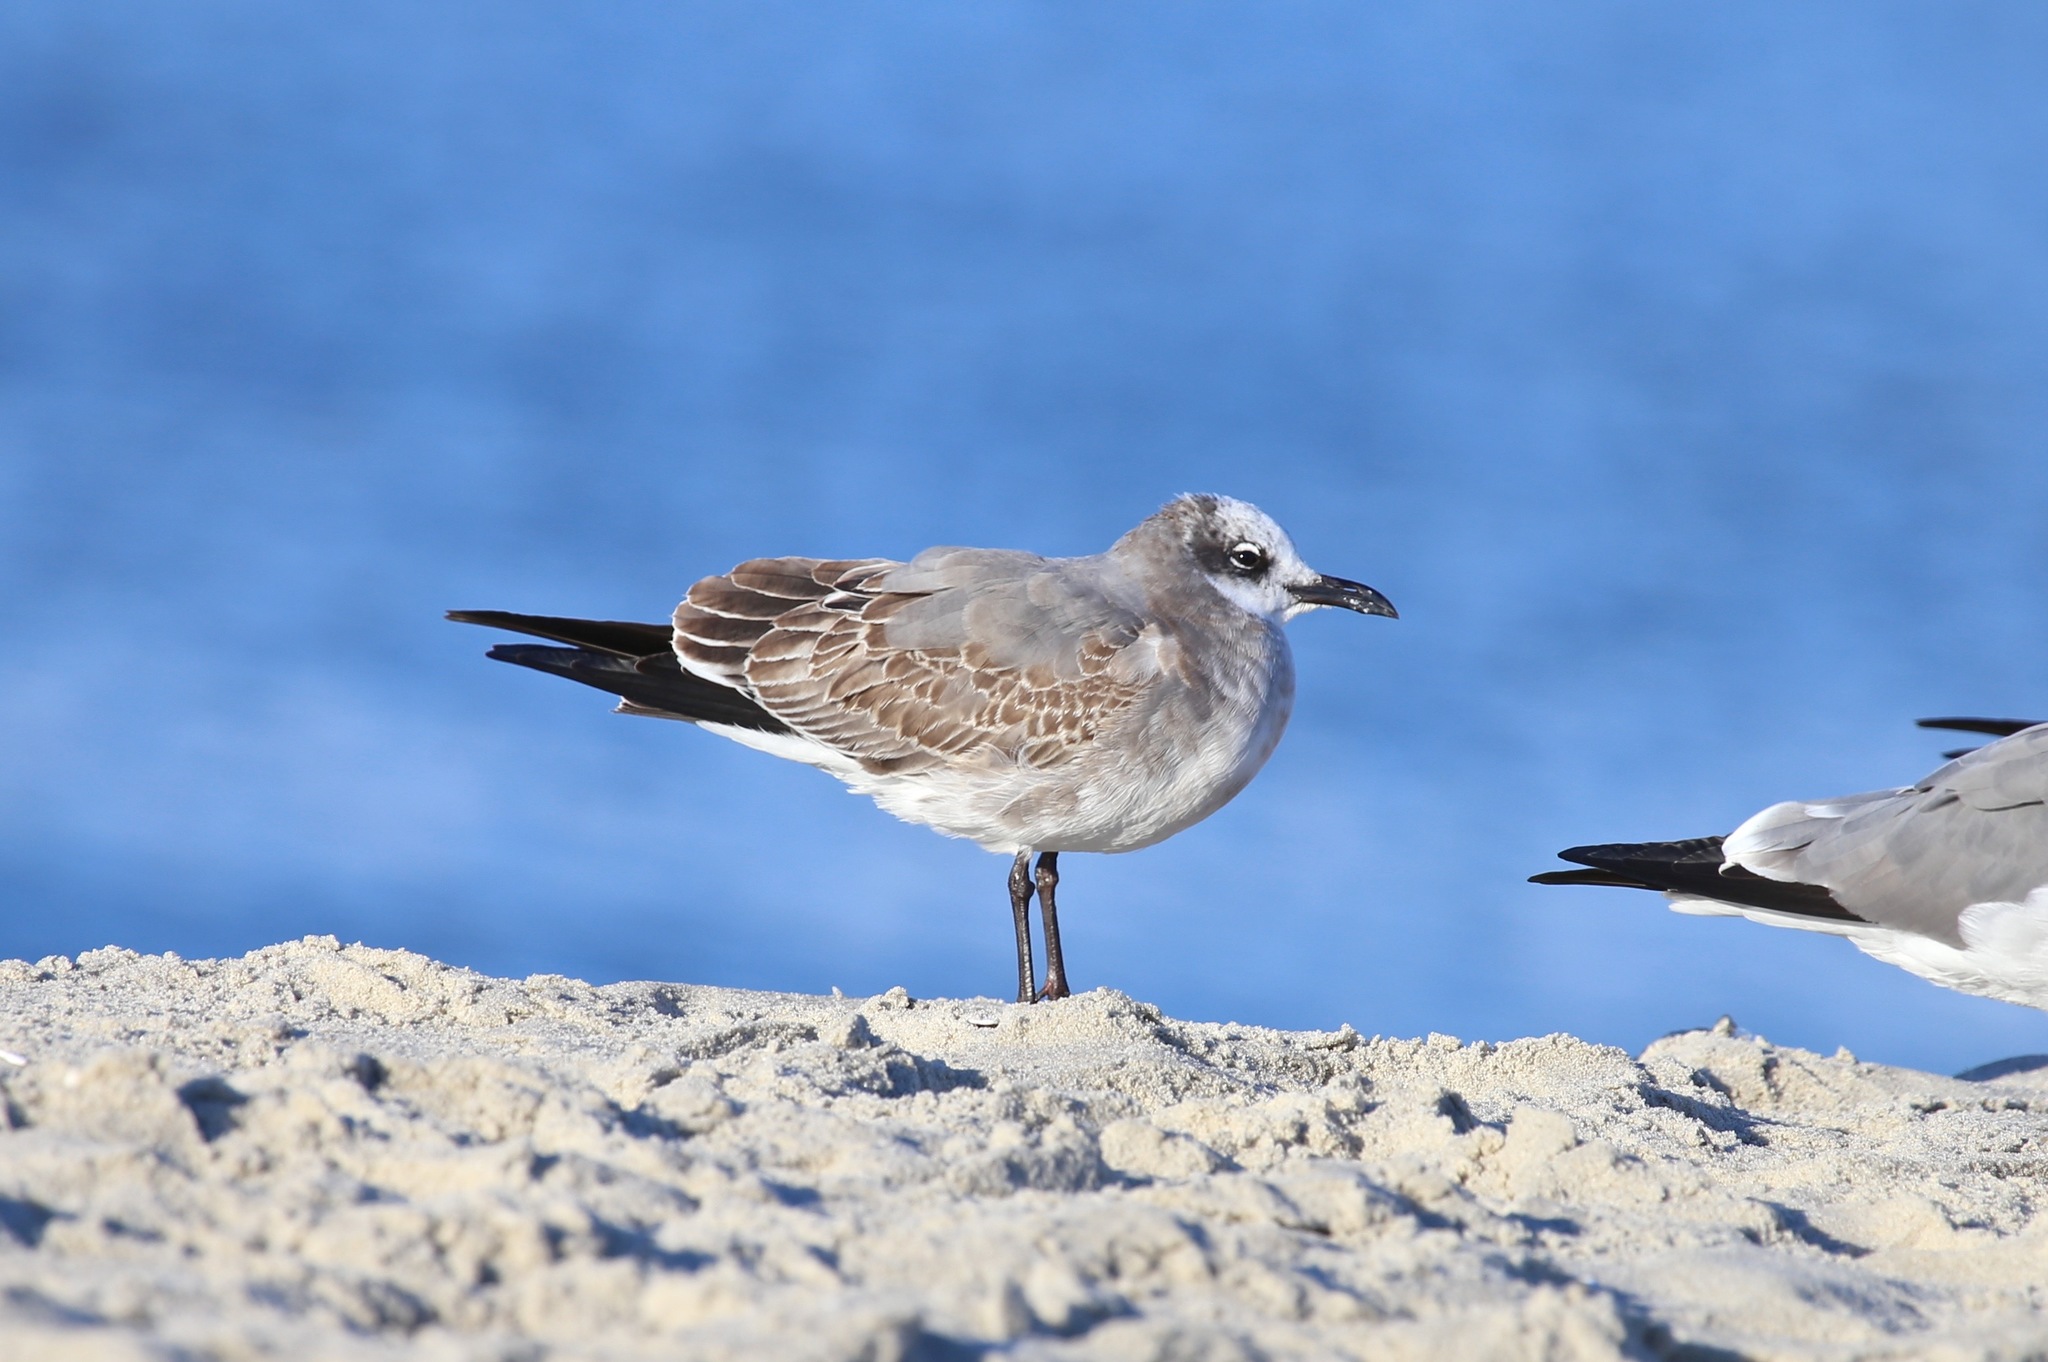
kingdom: Animalia
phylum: Chordata
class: Aves
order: Charadriiformes
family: Laridae
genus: Leucophaeus
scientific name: Leucophaeus atricilla
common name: Laughing gull
